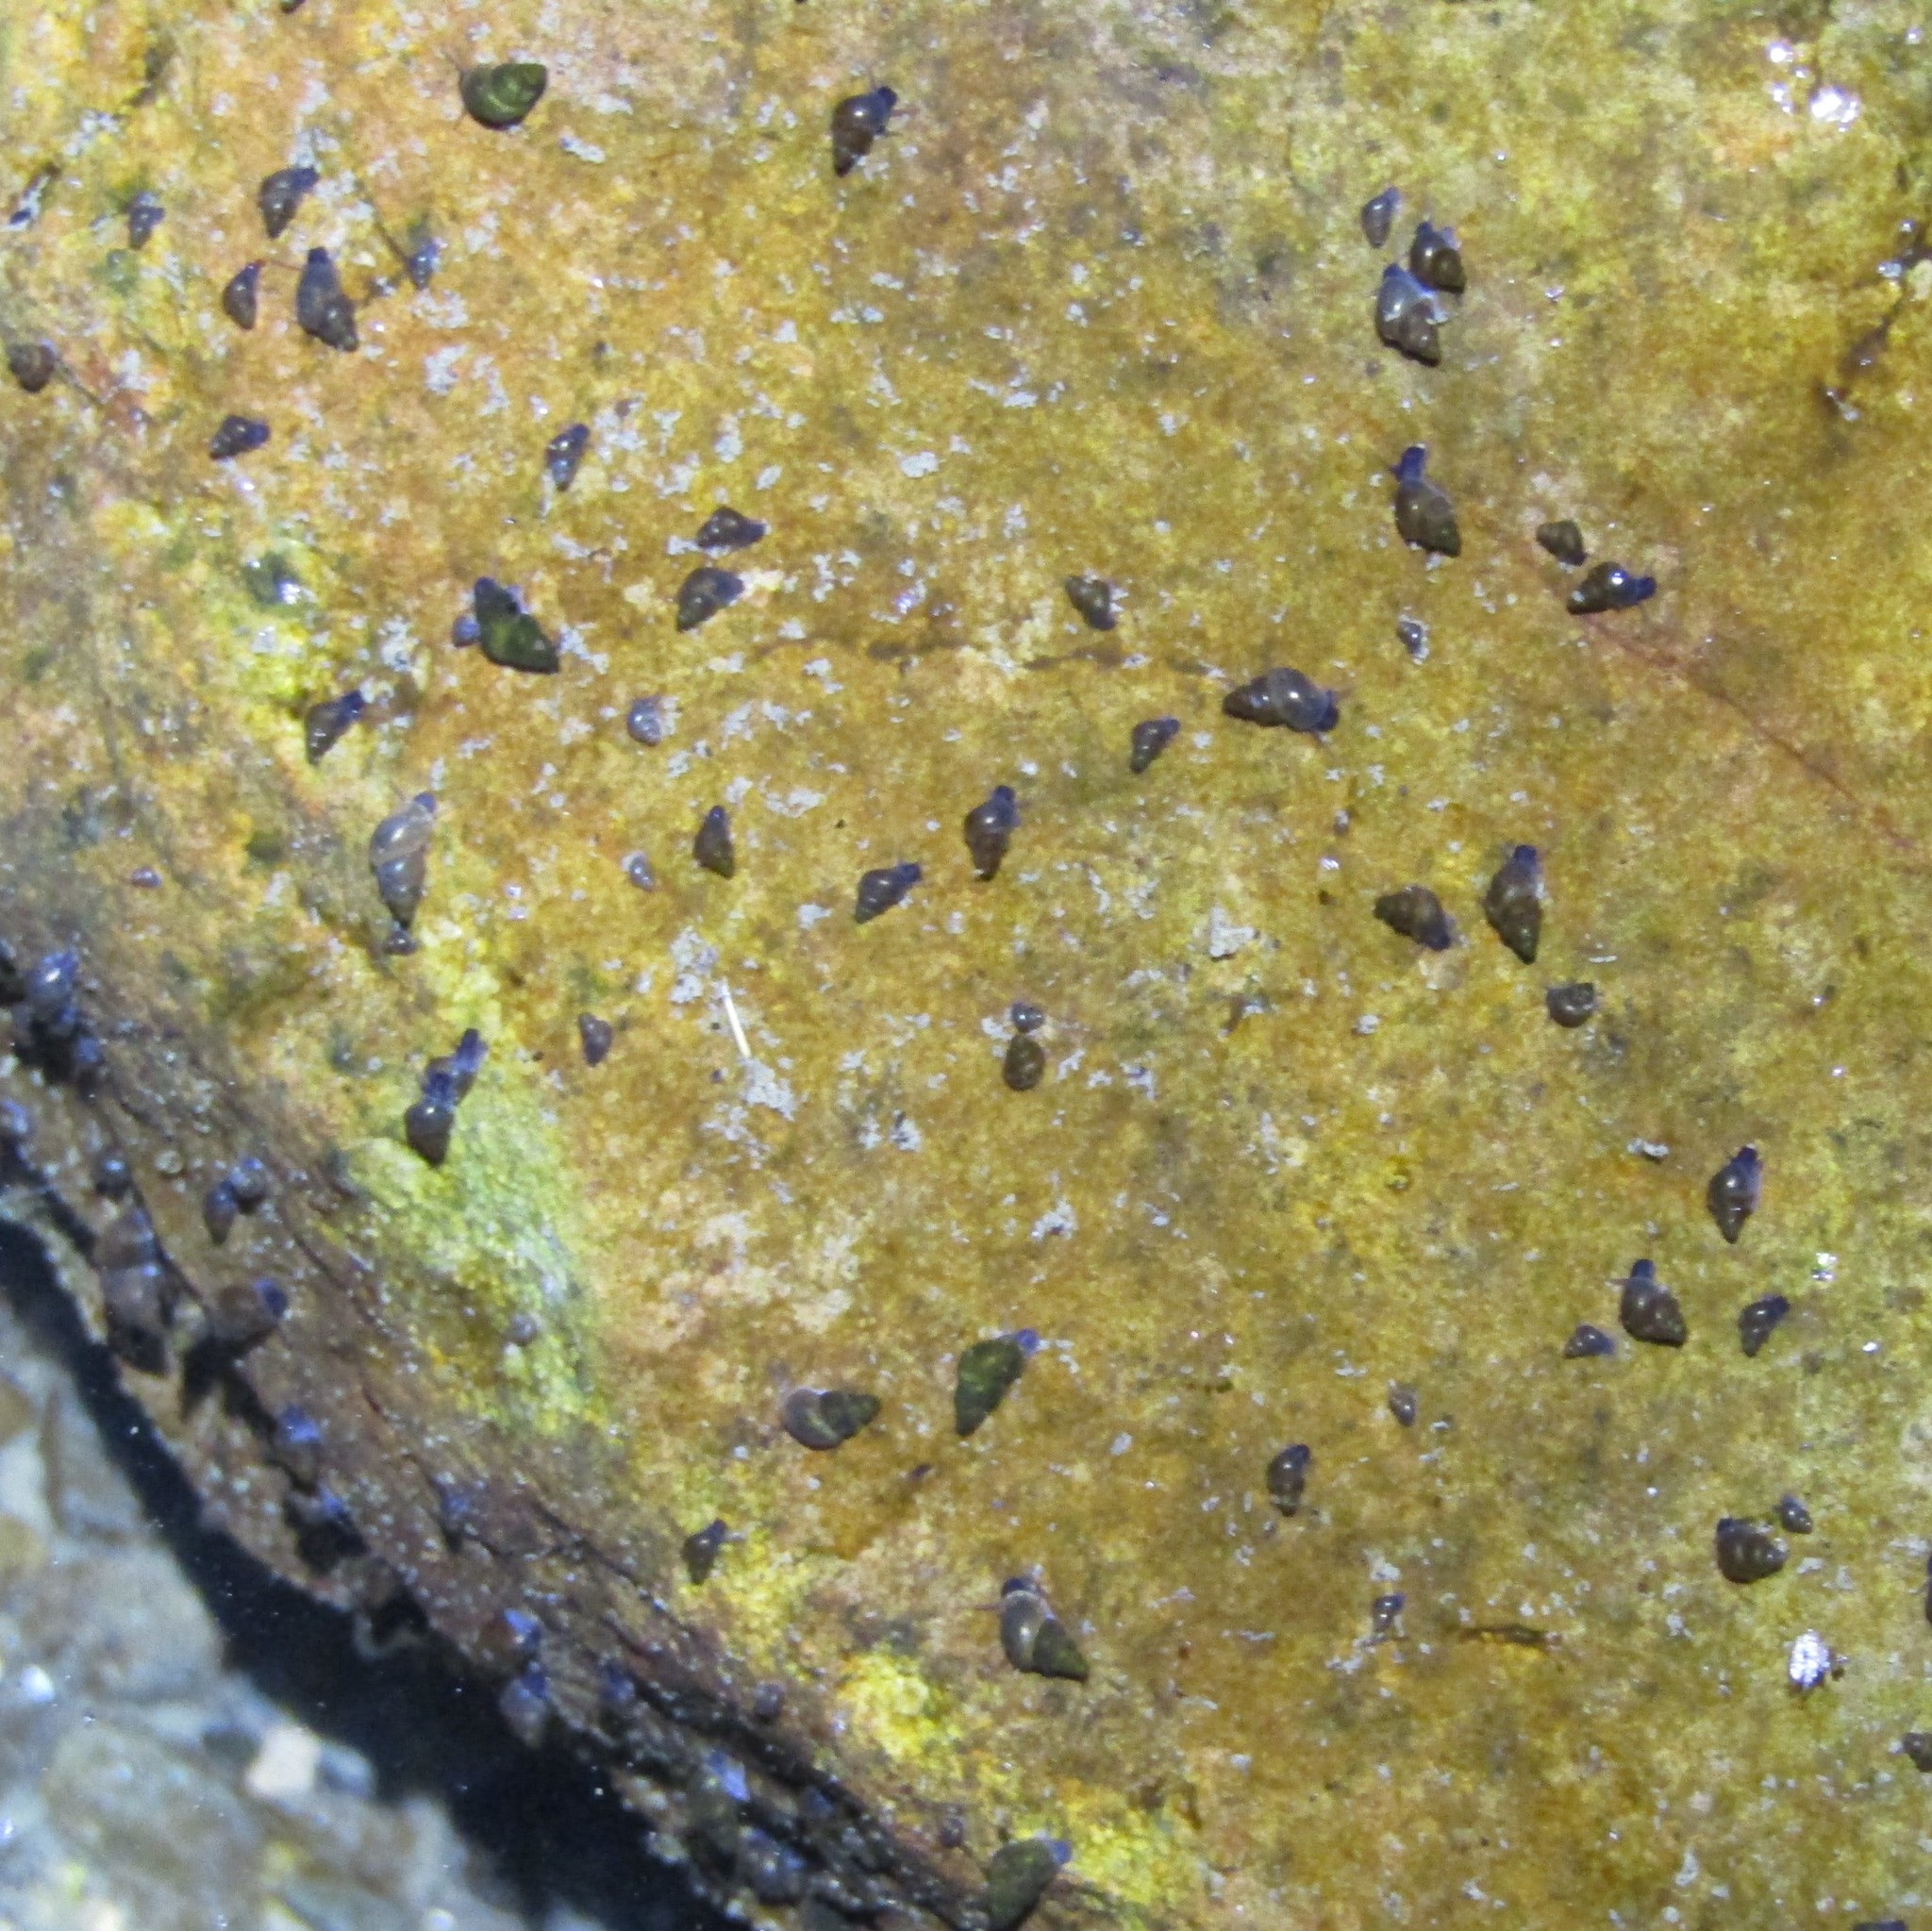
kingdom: Animalia
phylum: Mollusca
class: Gastropoda
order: Littorinimorpha
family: Tateidae
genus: Potamopyrgus
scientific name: Potamopyrgus antipodarum
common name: Jenkins' spire snail
